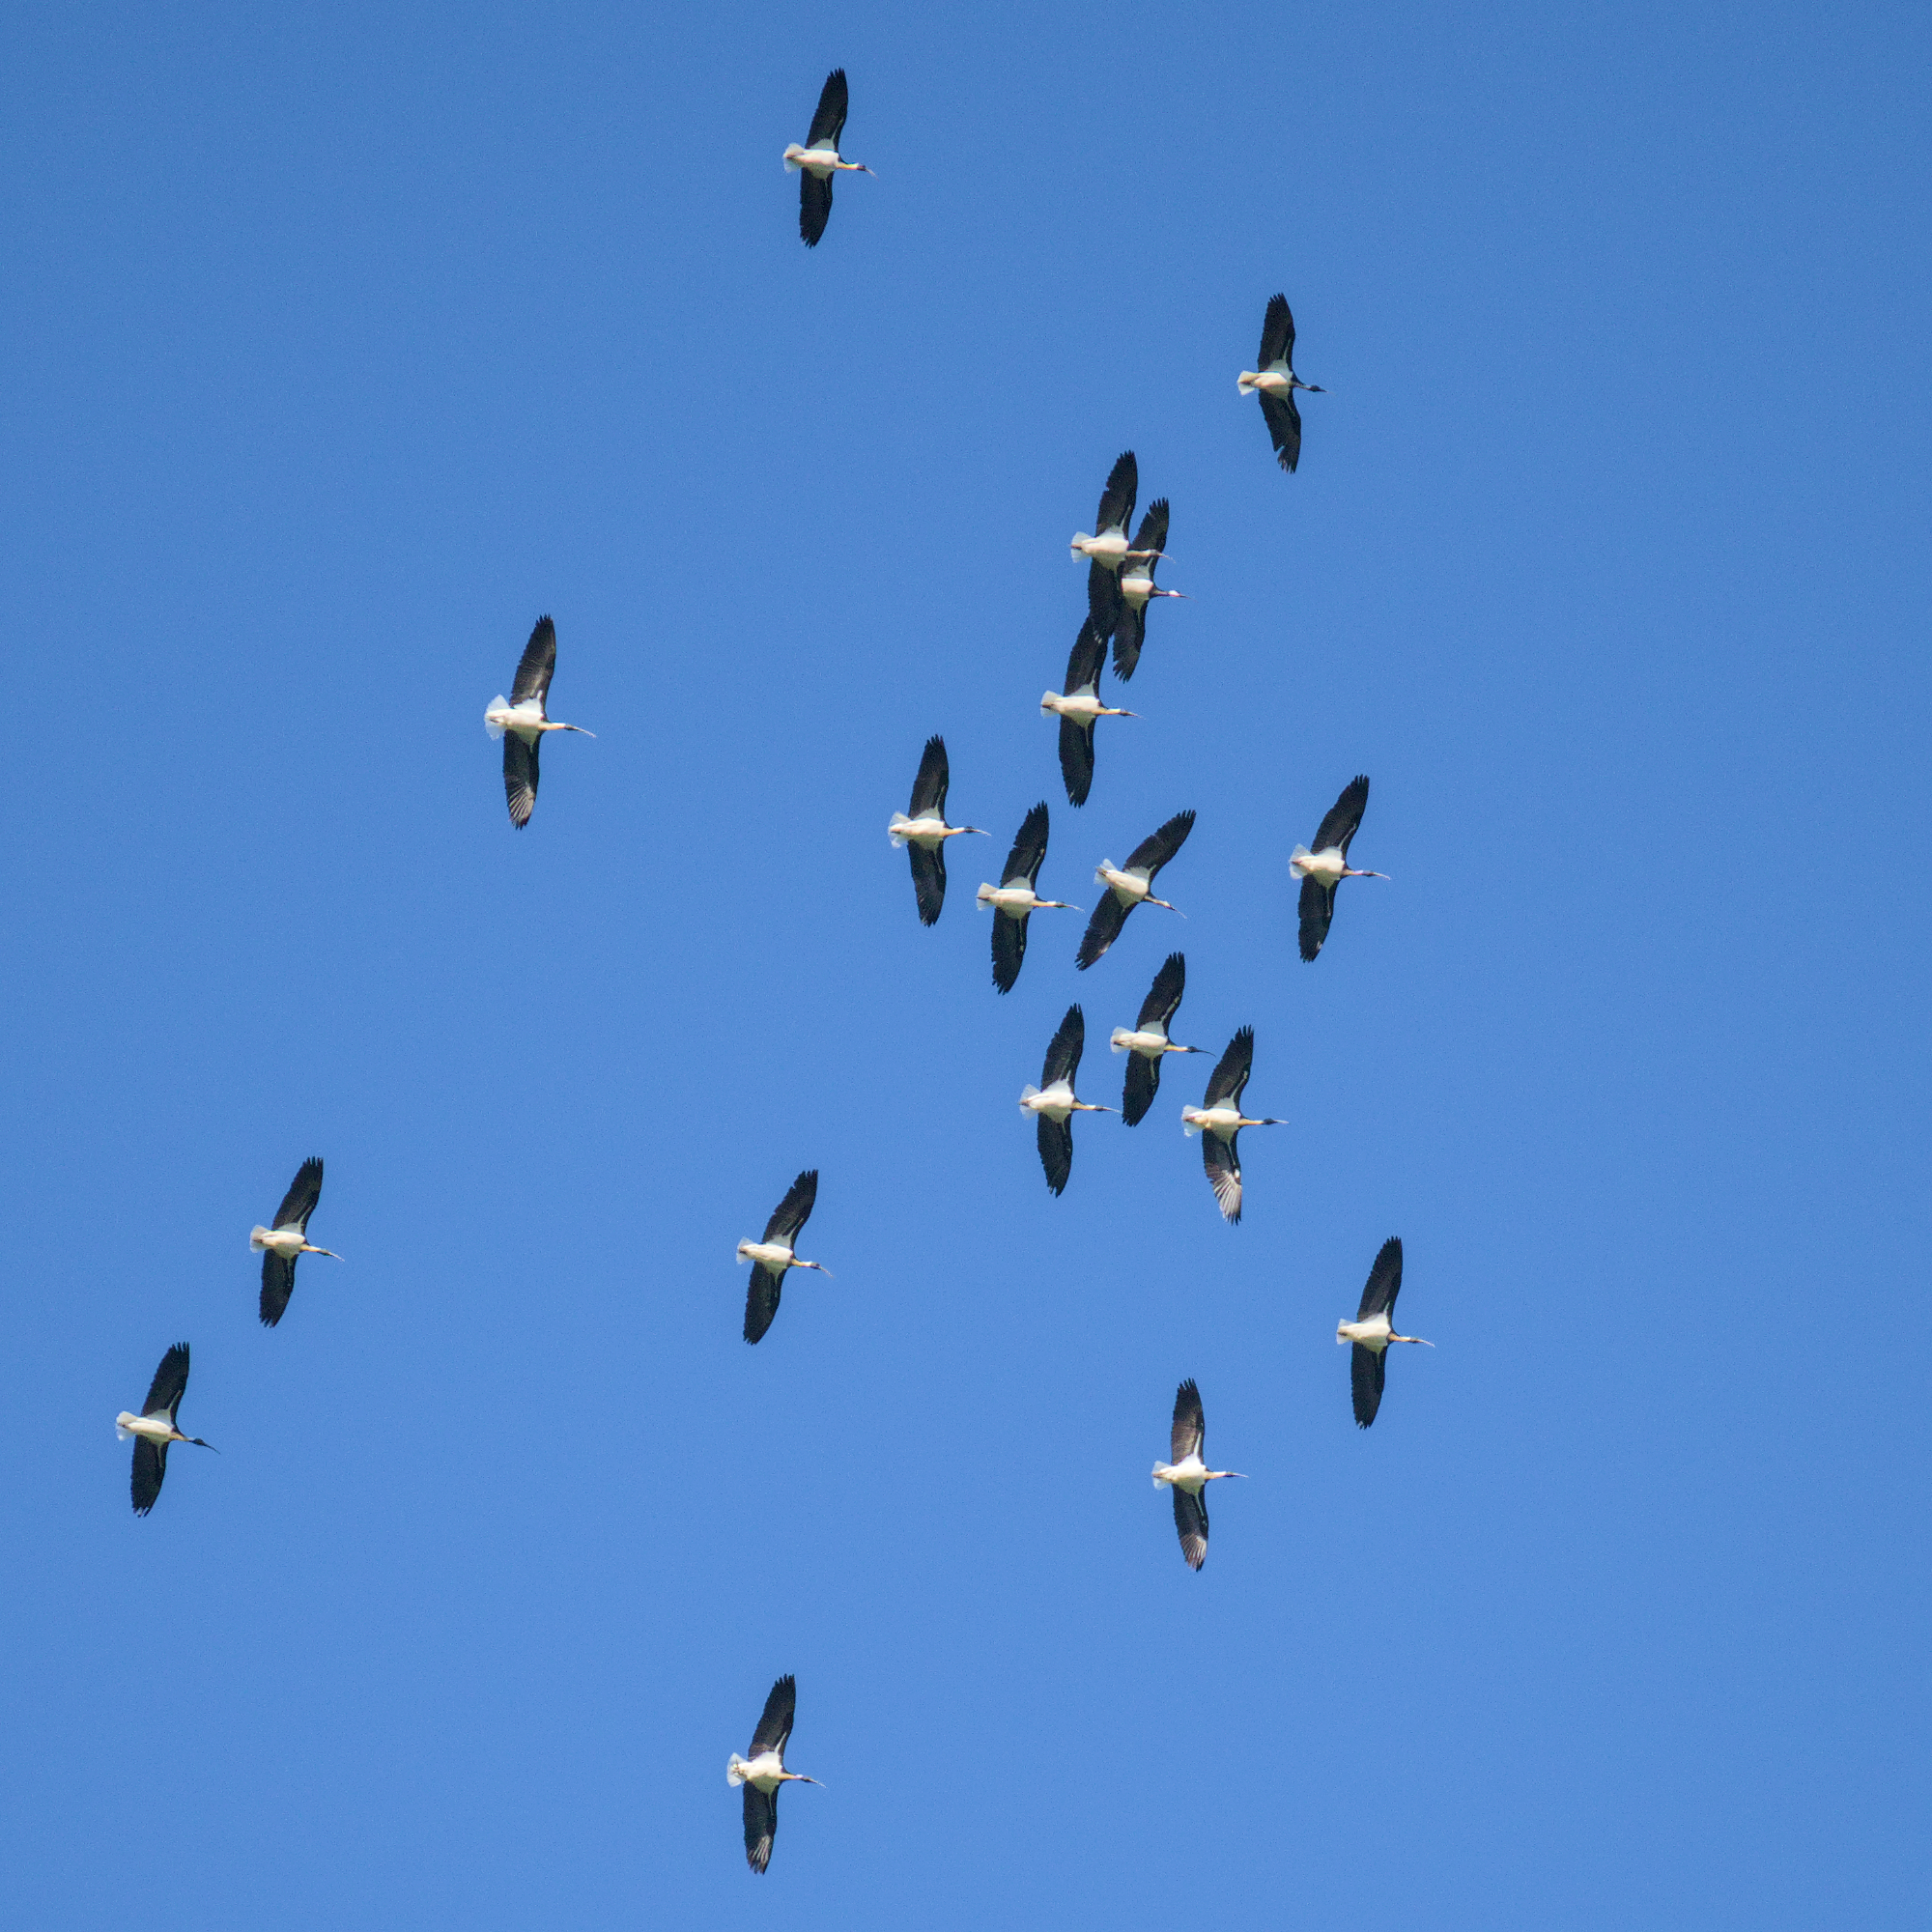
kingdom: Animalia
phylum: Chordata
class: Aves
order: Pelecaniformes
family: Threskiornithidae
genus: Threskiornis
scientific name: Threskiornis spinicollis
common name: Straw-necked ibis
